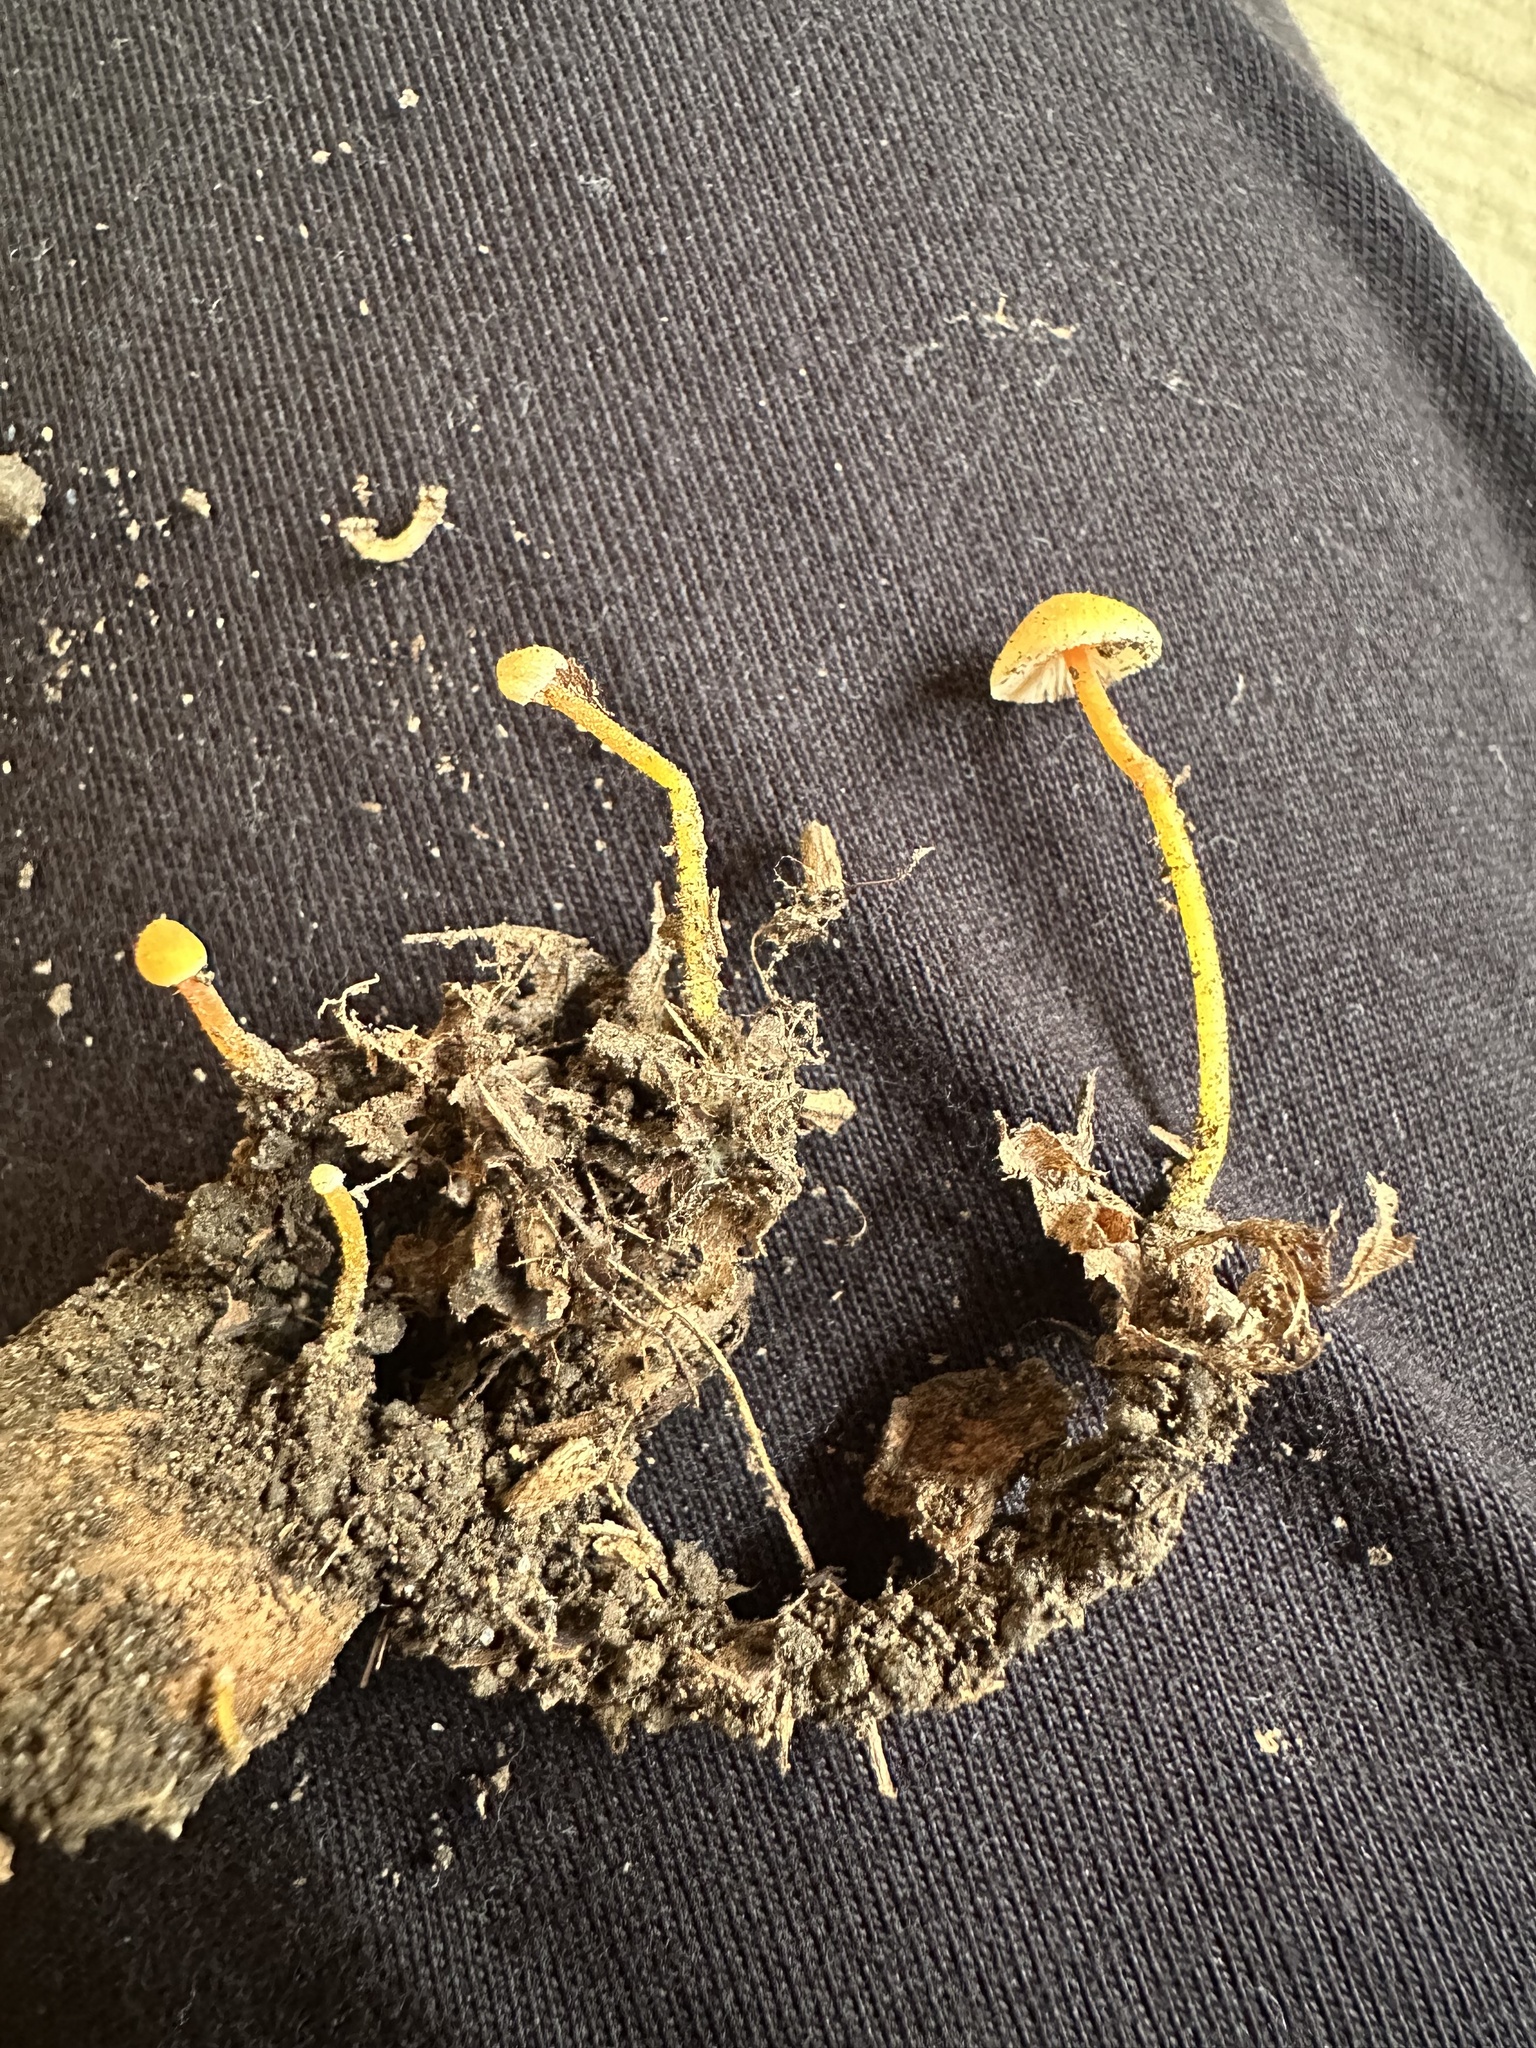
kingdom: Fungi
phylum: Basidiomycota
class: Agaricomycetes
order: Agaricales
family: Mycenaceae
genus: Mycena
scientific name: Mycena crocea
